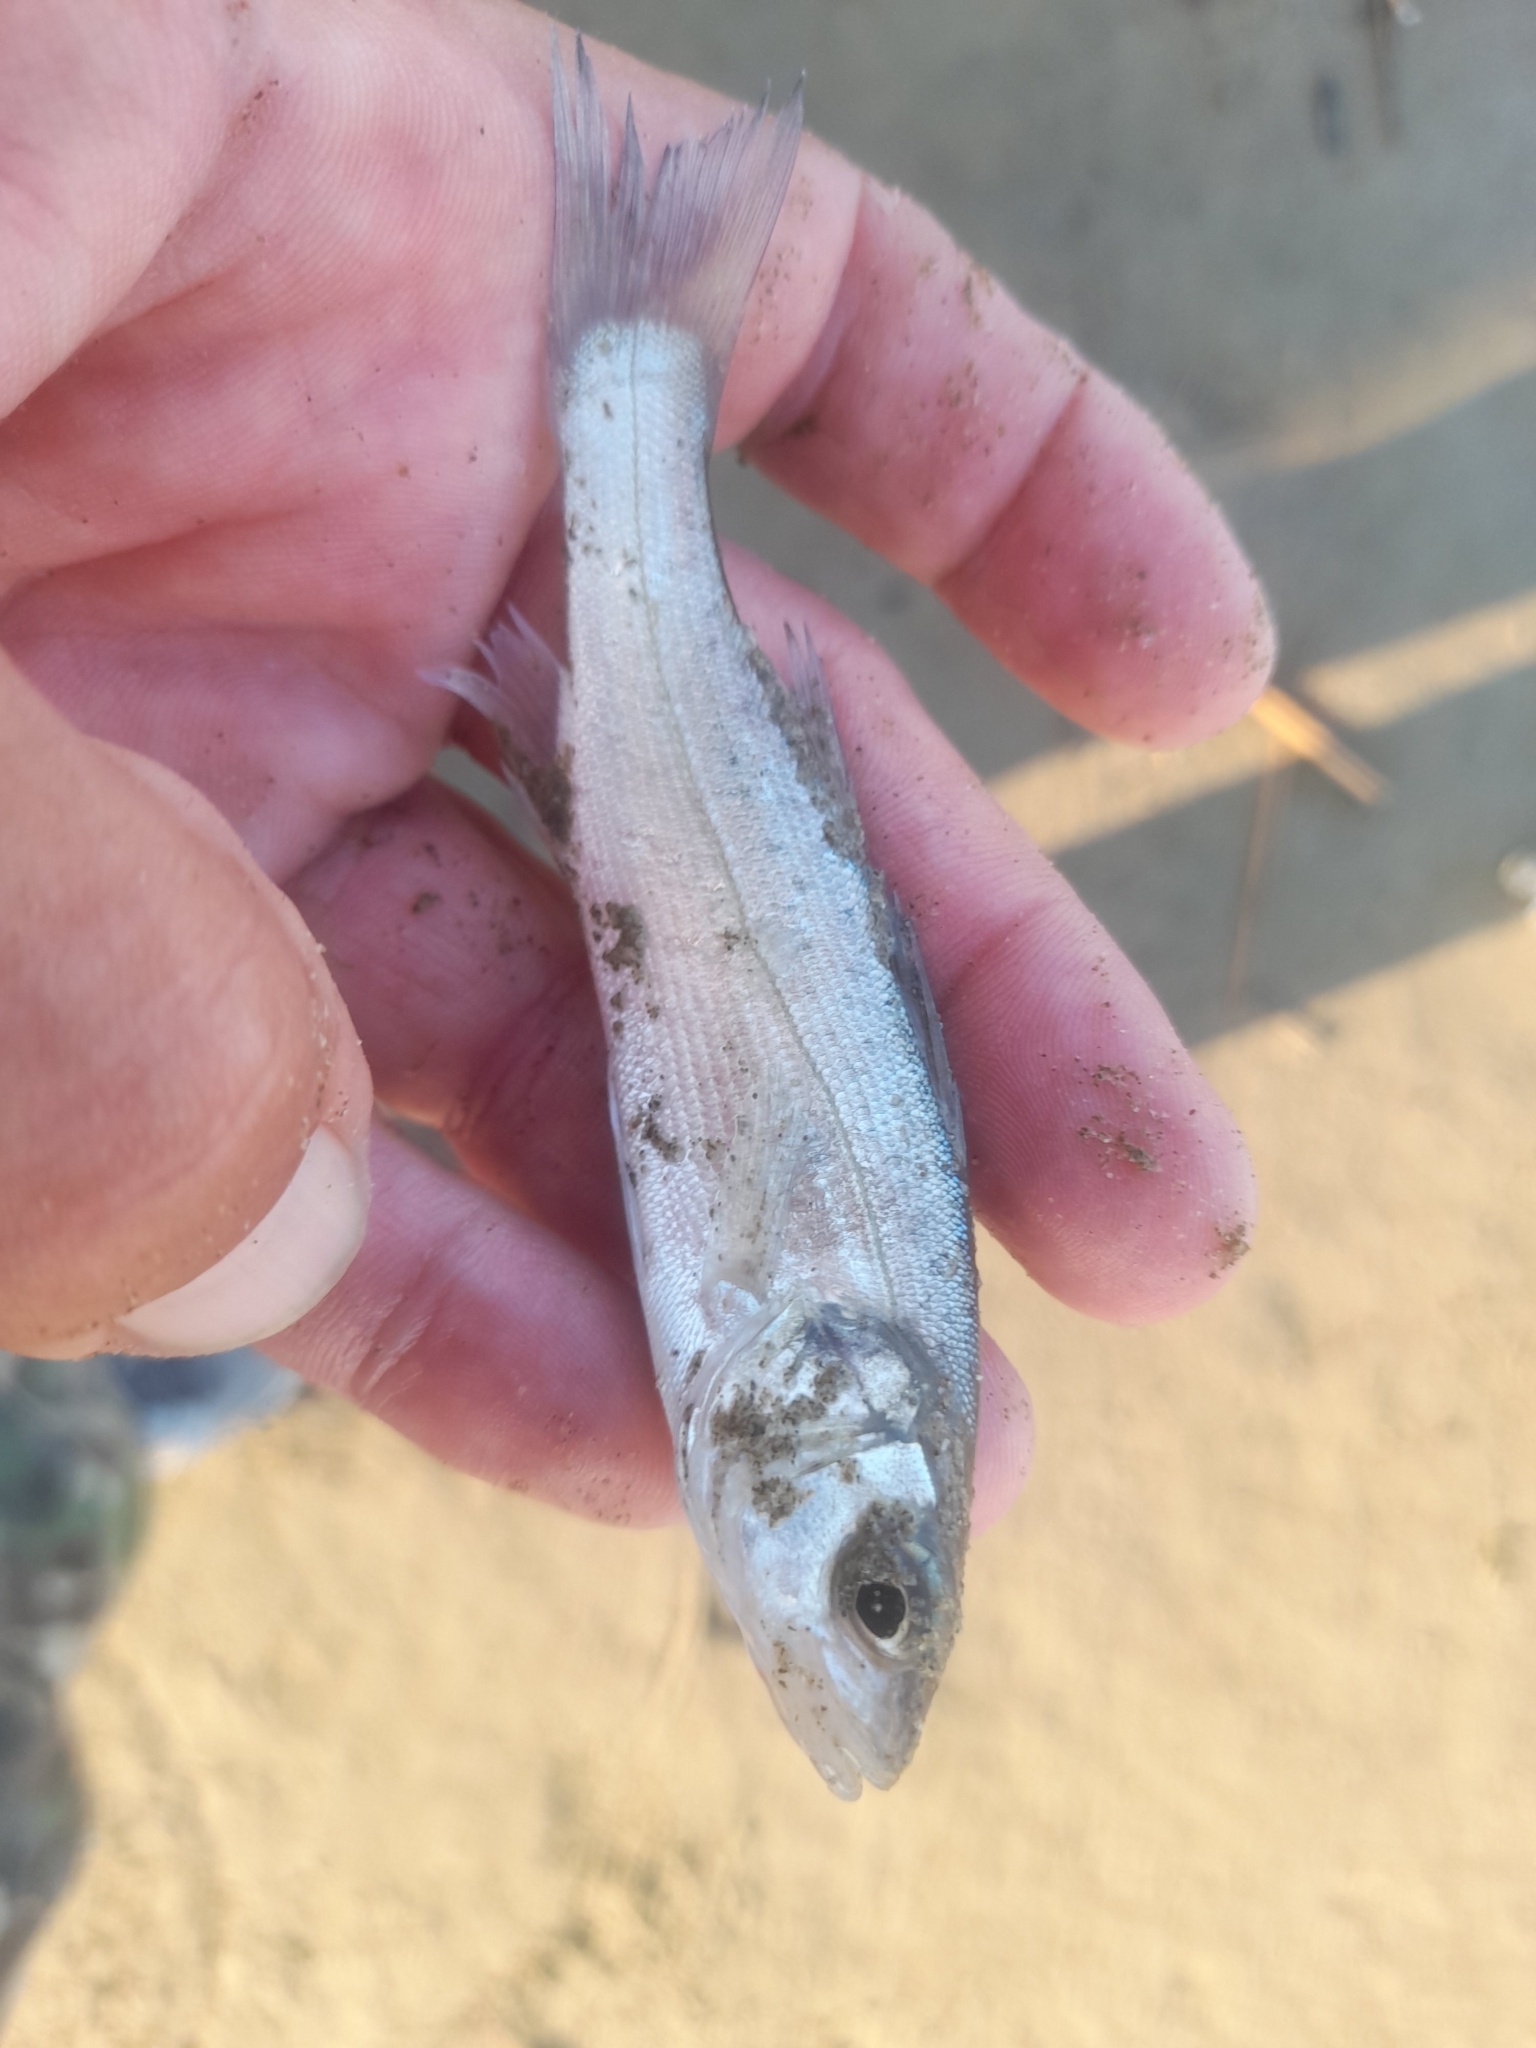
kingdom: Animalia
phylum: Chordata
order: Perciformes
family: Moronidae
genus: Dicentrarchus
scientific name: Dicentrarchus labrax
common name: European seabass
